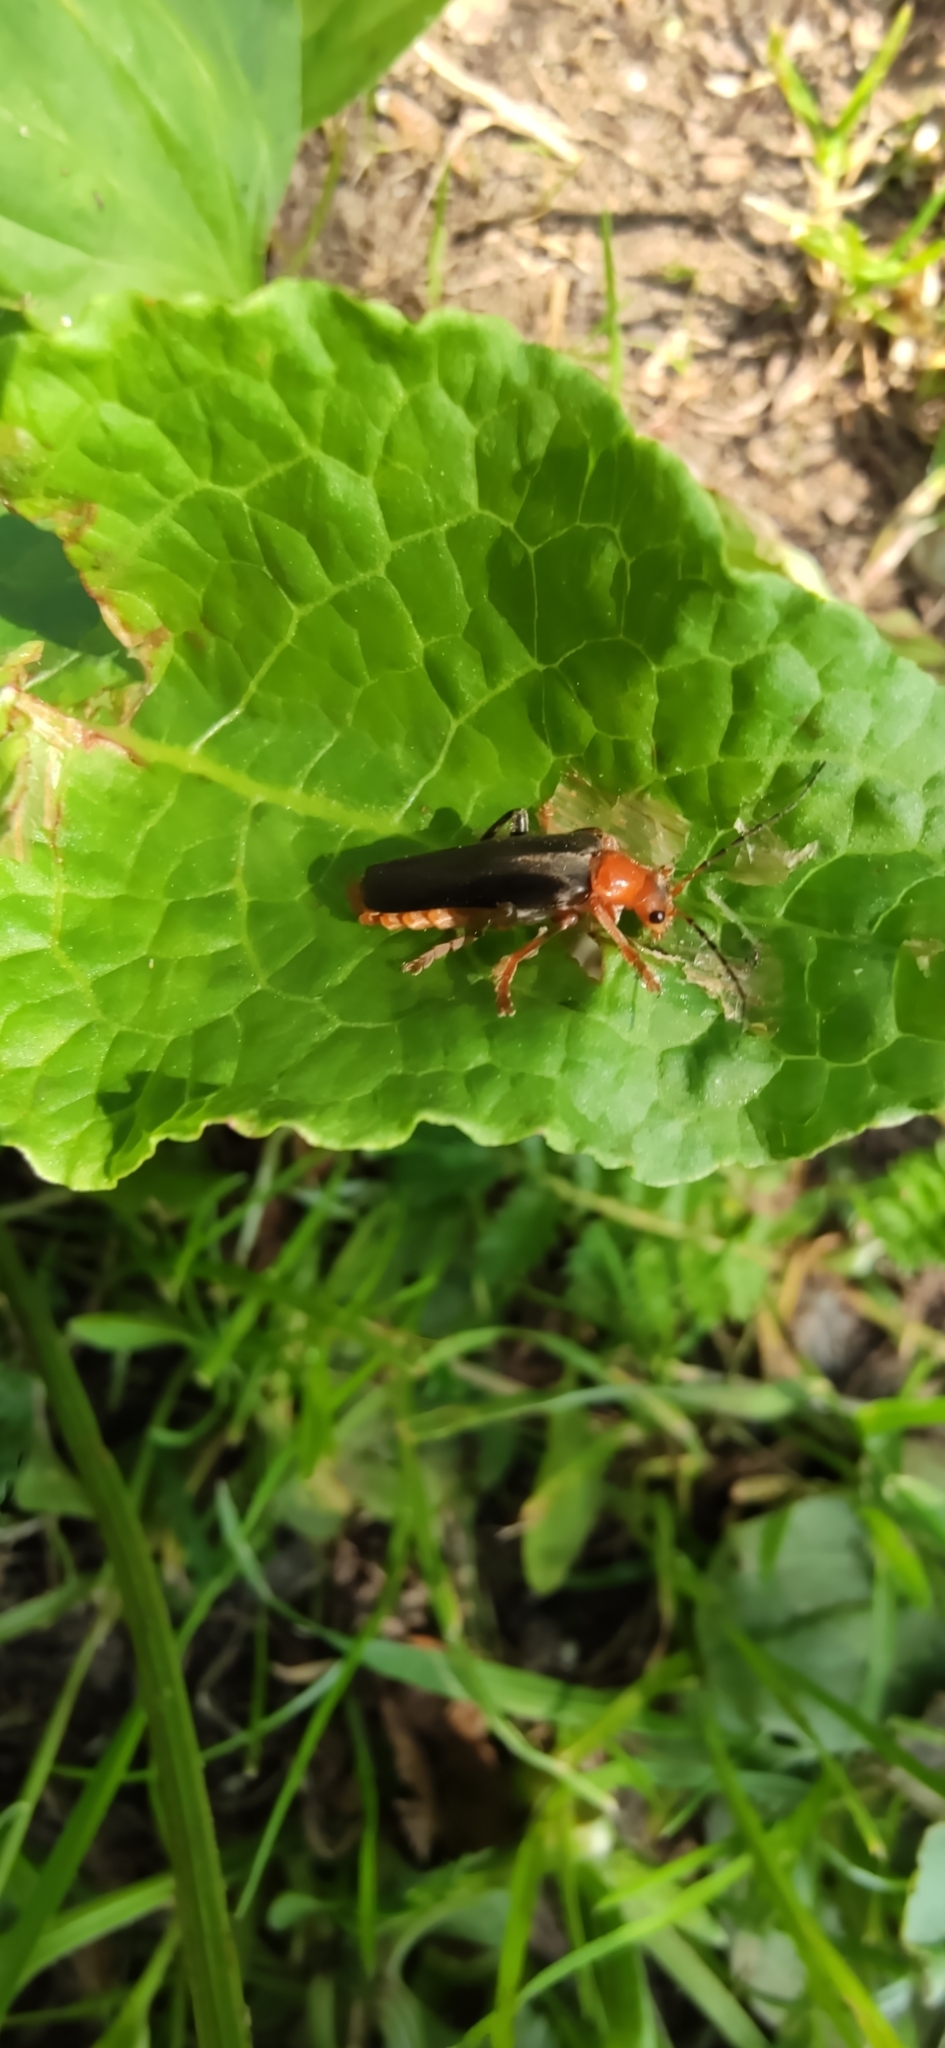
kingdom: Animalia
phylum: Arthropoda
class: Insecta
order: Coleoptera
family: Cantharidae
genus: Cantharis
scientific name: Cantharis livida
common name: Livid soldier beetle
